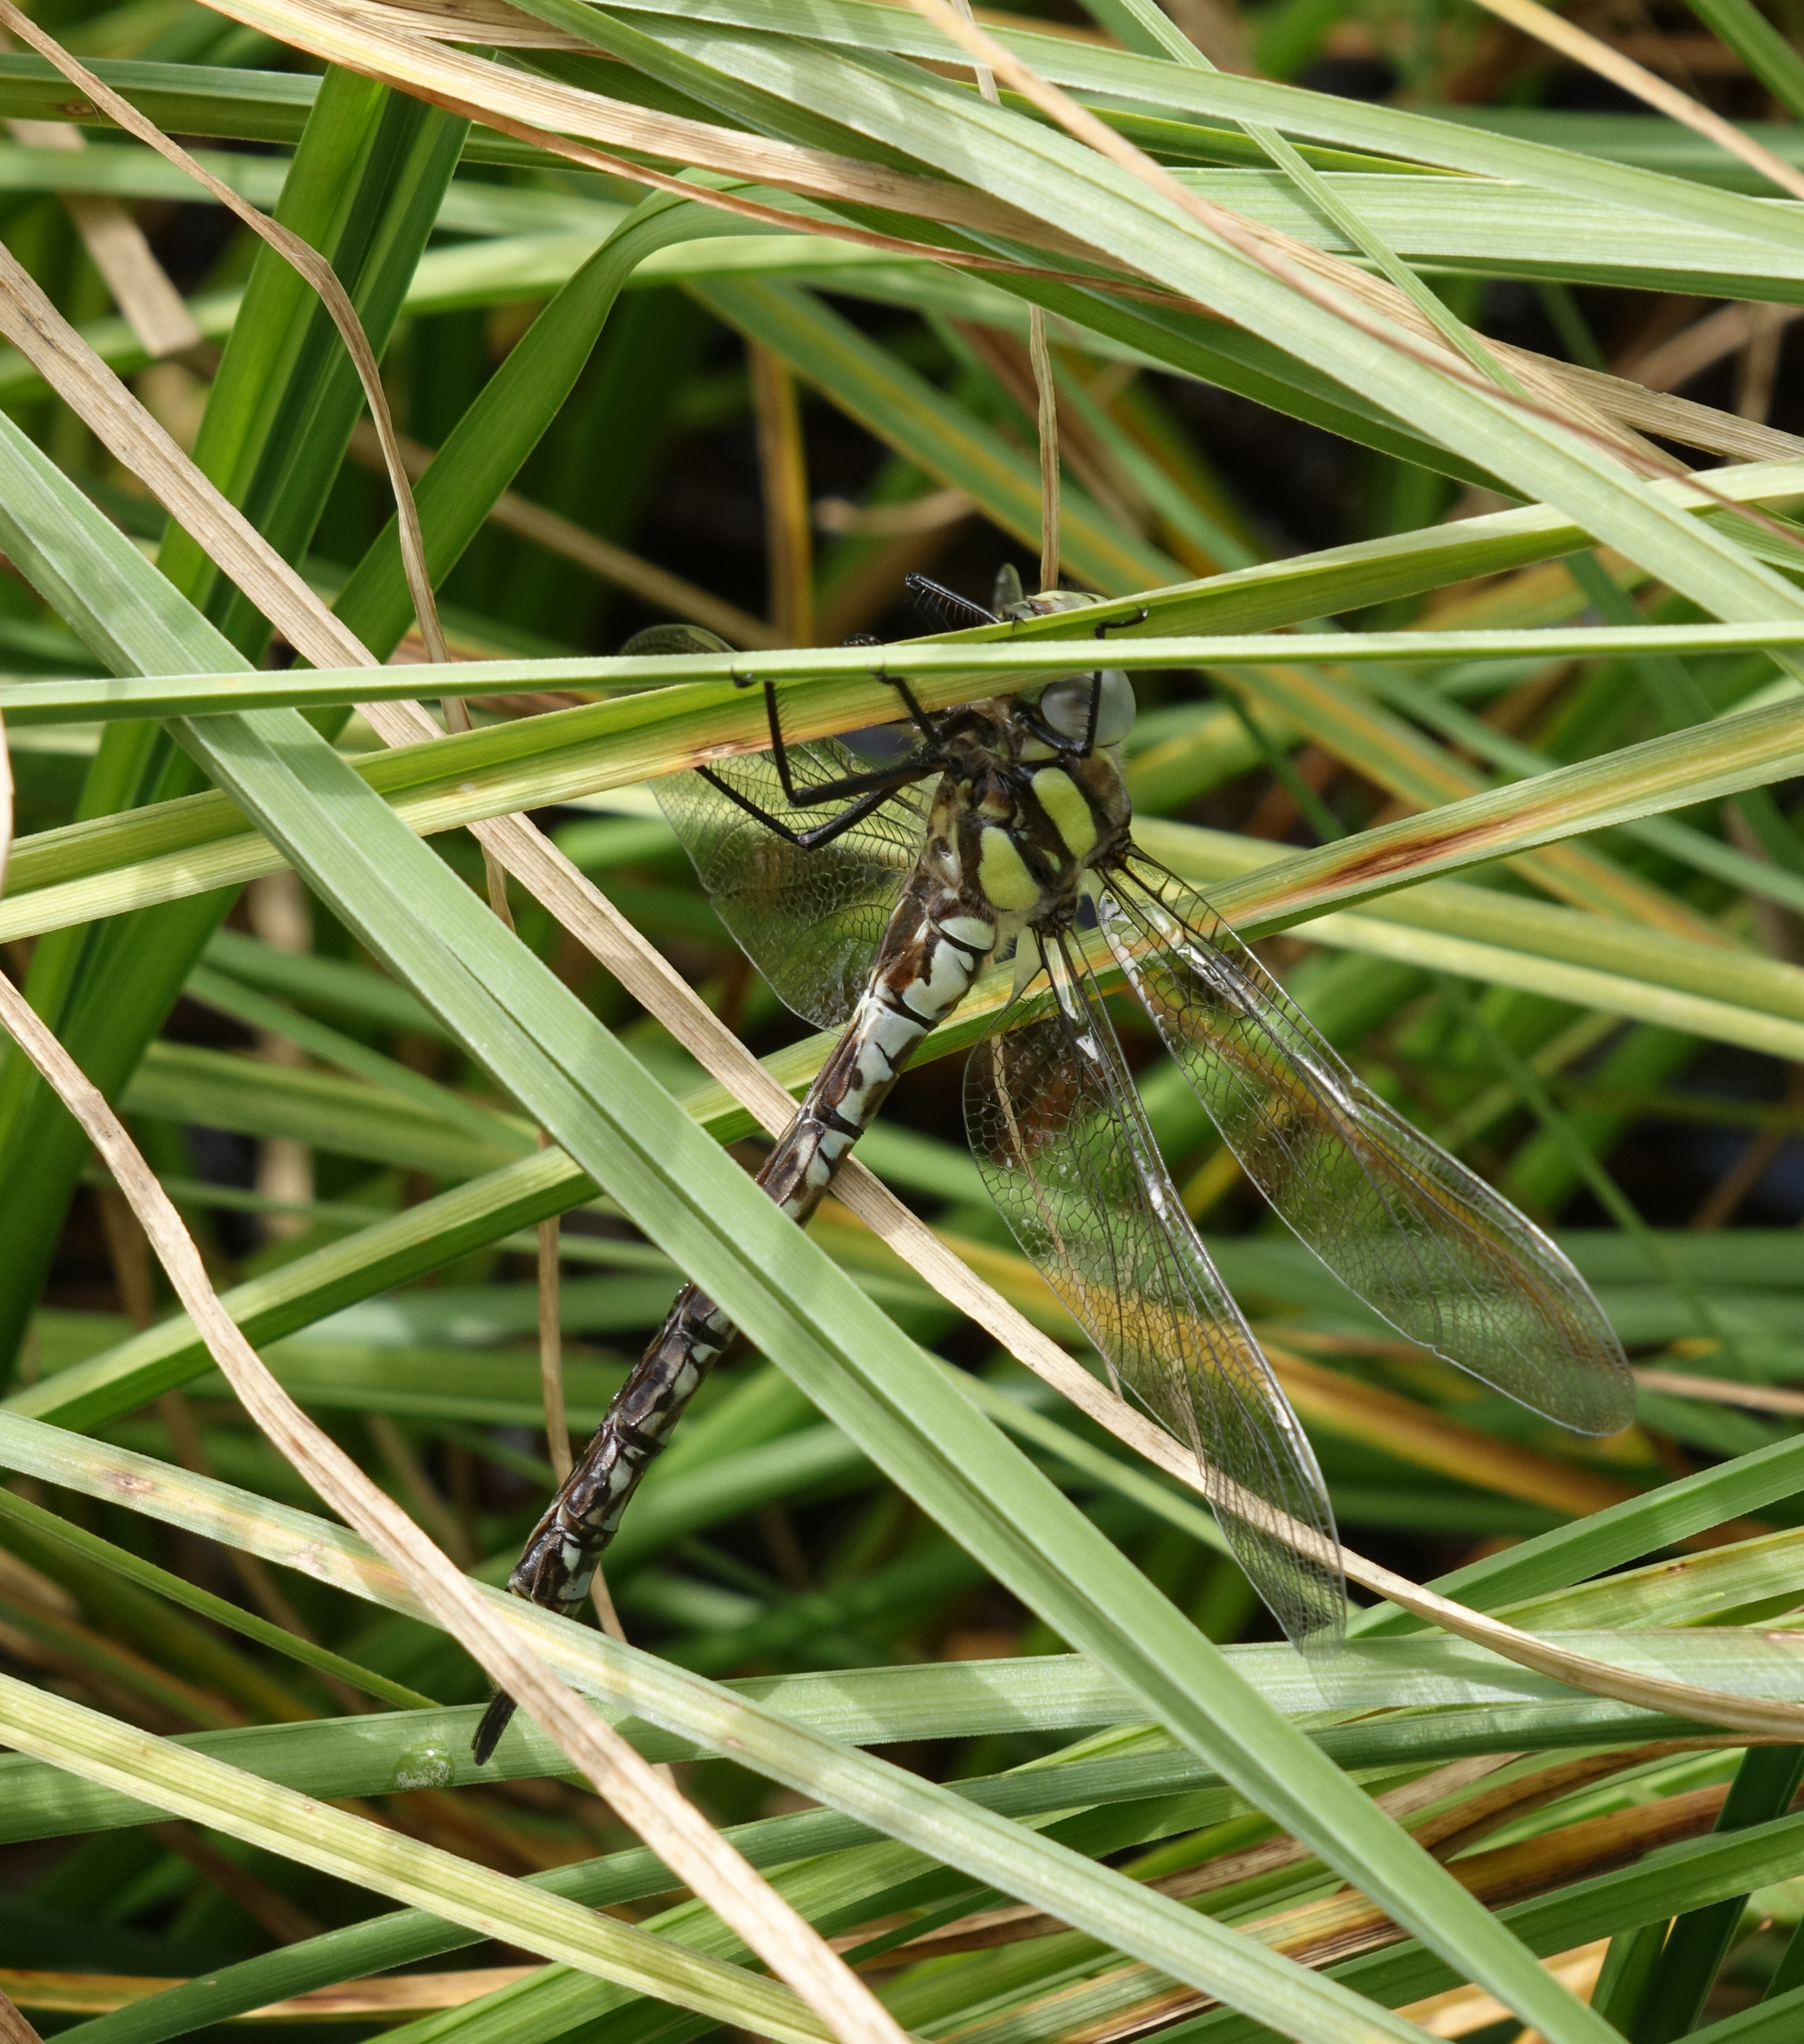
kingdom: Animalia
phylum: Arthropoda
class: Insecta
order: Odonata
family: Aeshnidae
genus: Aeshna
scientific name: Aeshna juncea
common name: Moorland hawker
